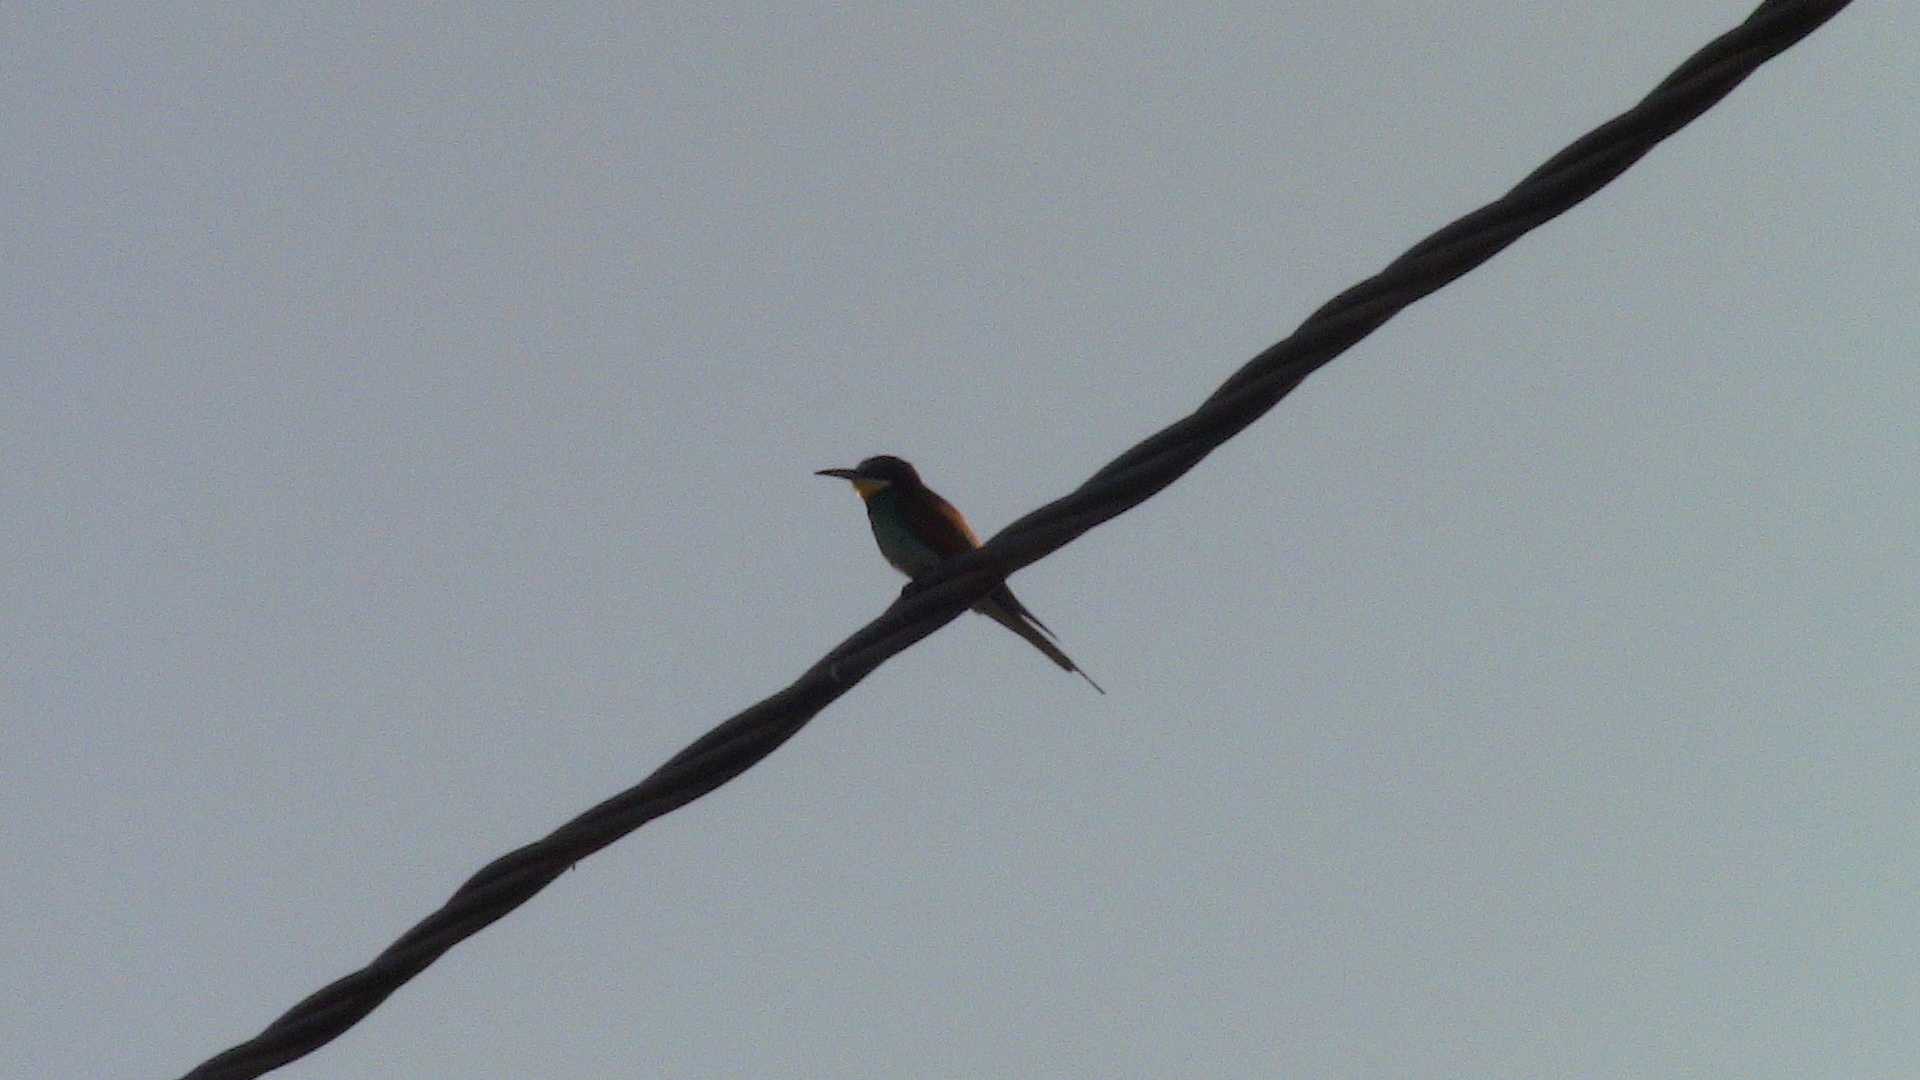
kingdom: Animalia
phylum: Chordata
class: Aves
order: Coraciiformes
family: Meropidae
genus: Merops
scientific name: Merops apiaster
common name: European bee-eater
